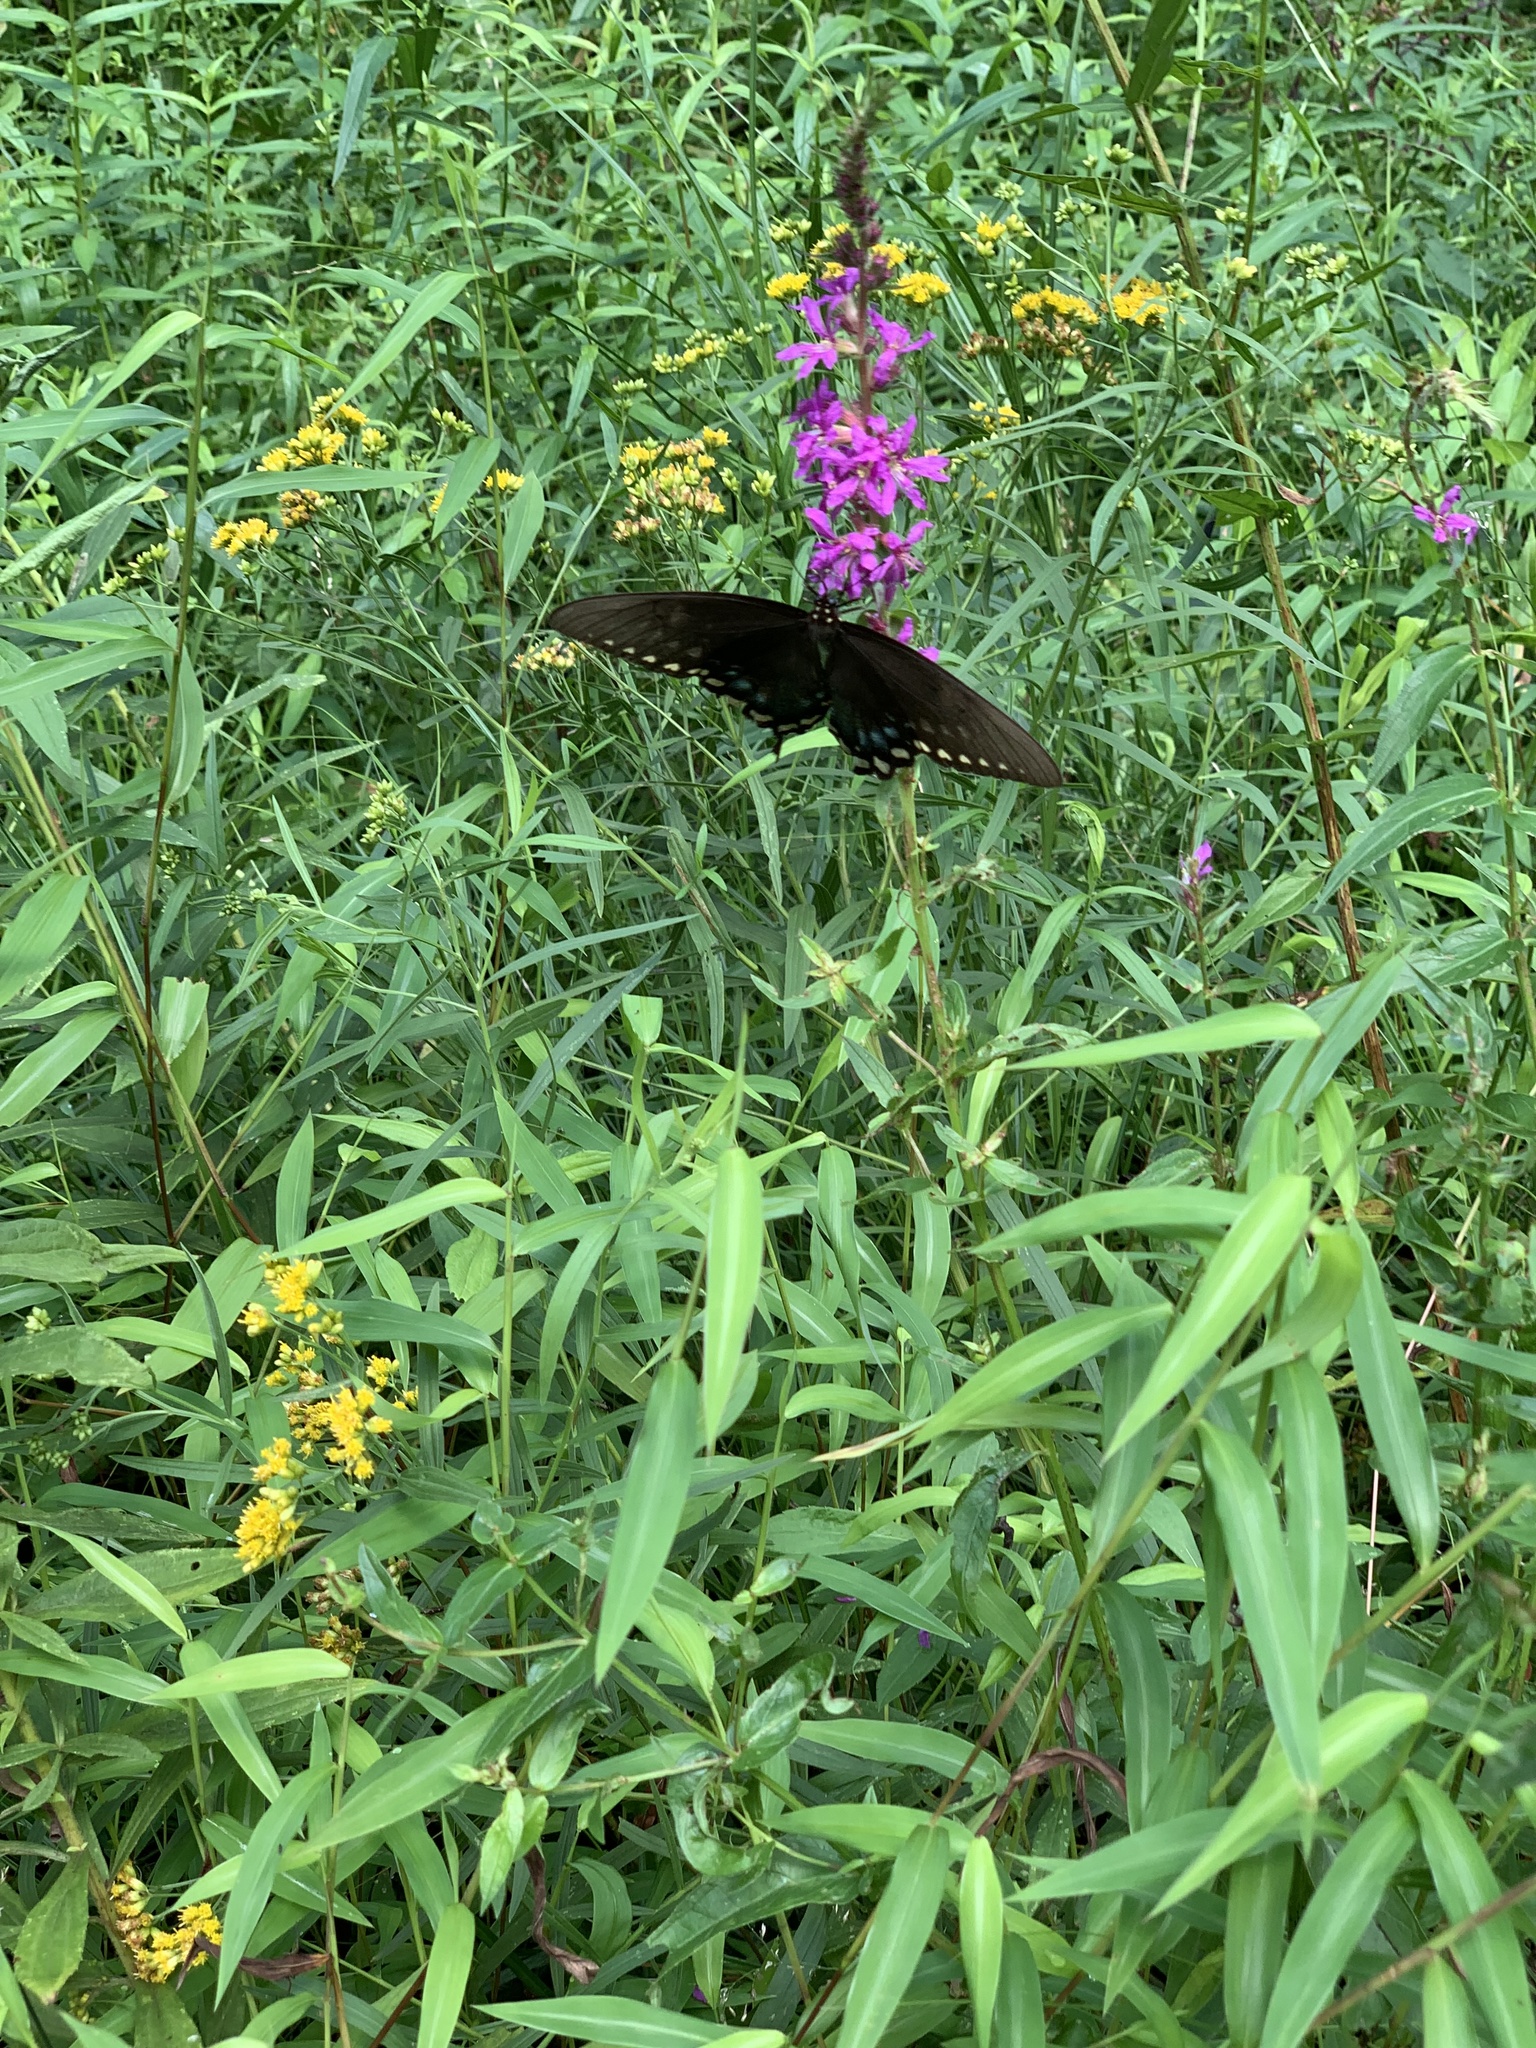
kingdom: Animalia
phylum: Arthropoda
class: Insecta
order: Lepidoptera
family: Papilionidae
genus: Papilio
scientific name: Papilio troilus
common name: Spicebush swallowtail
